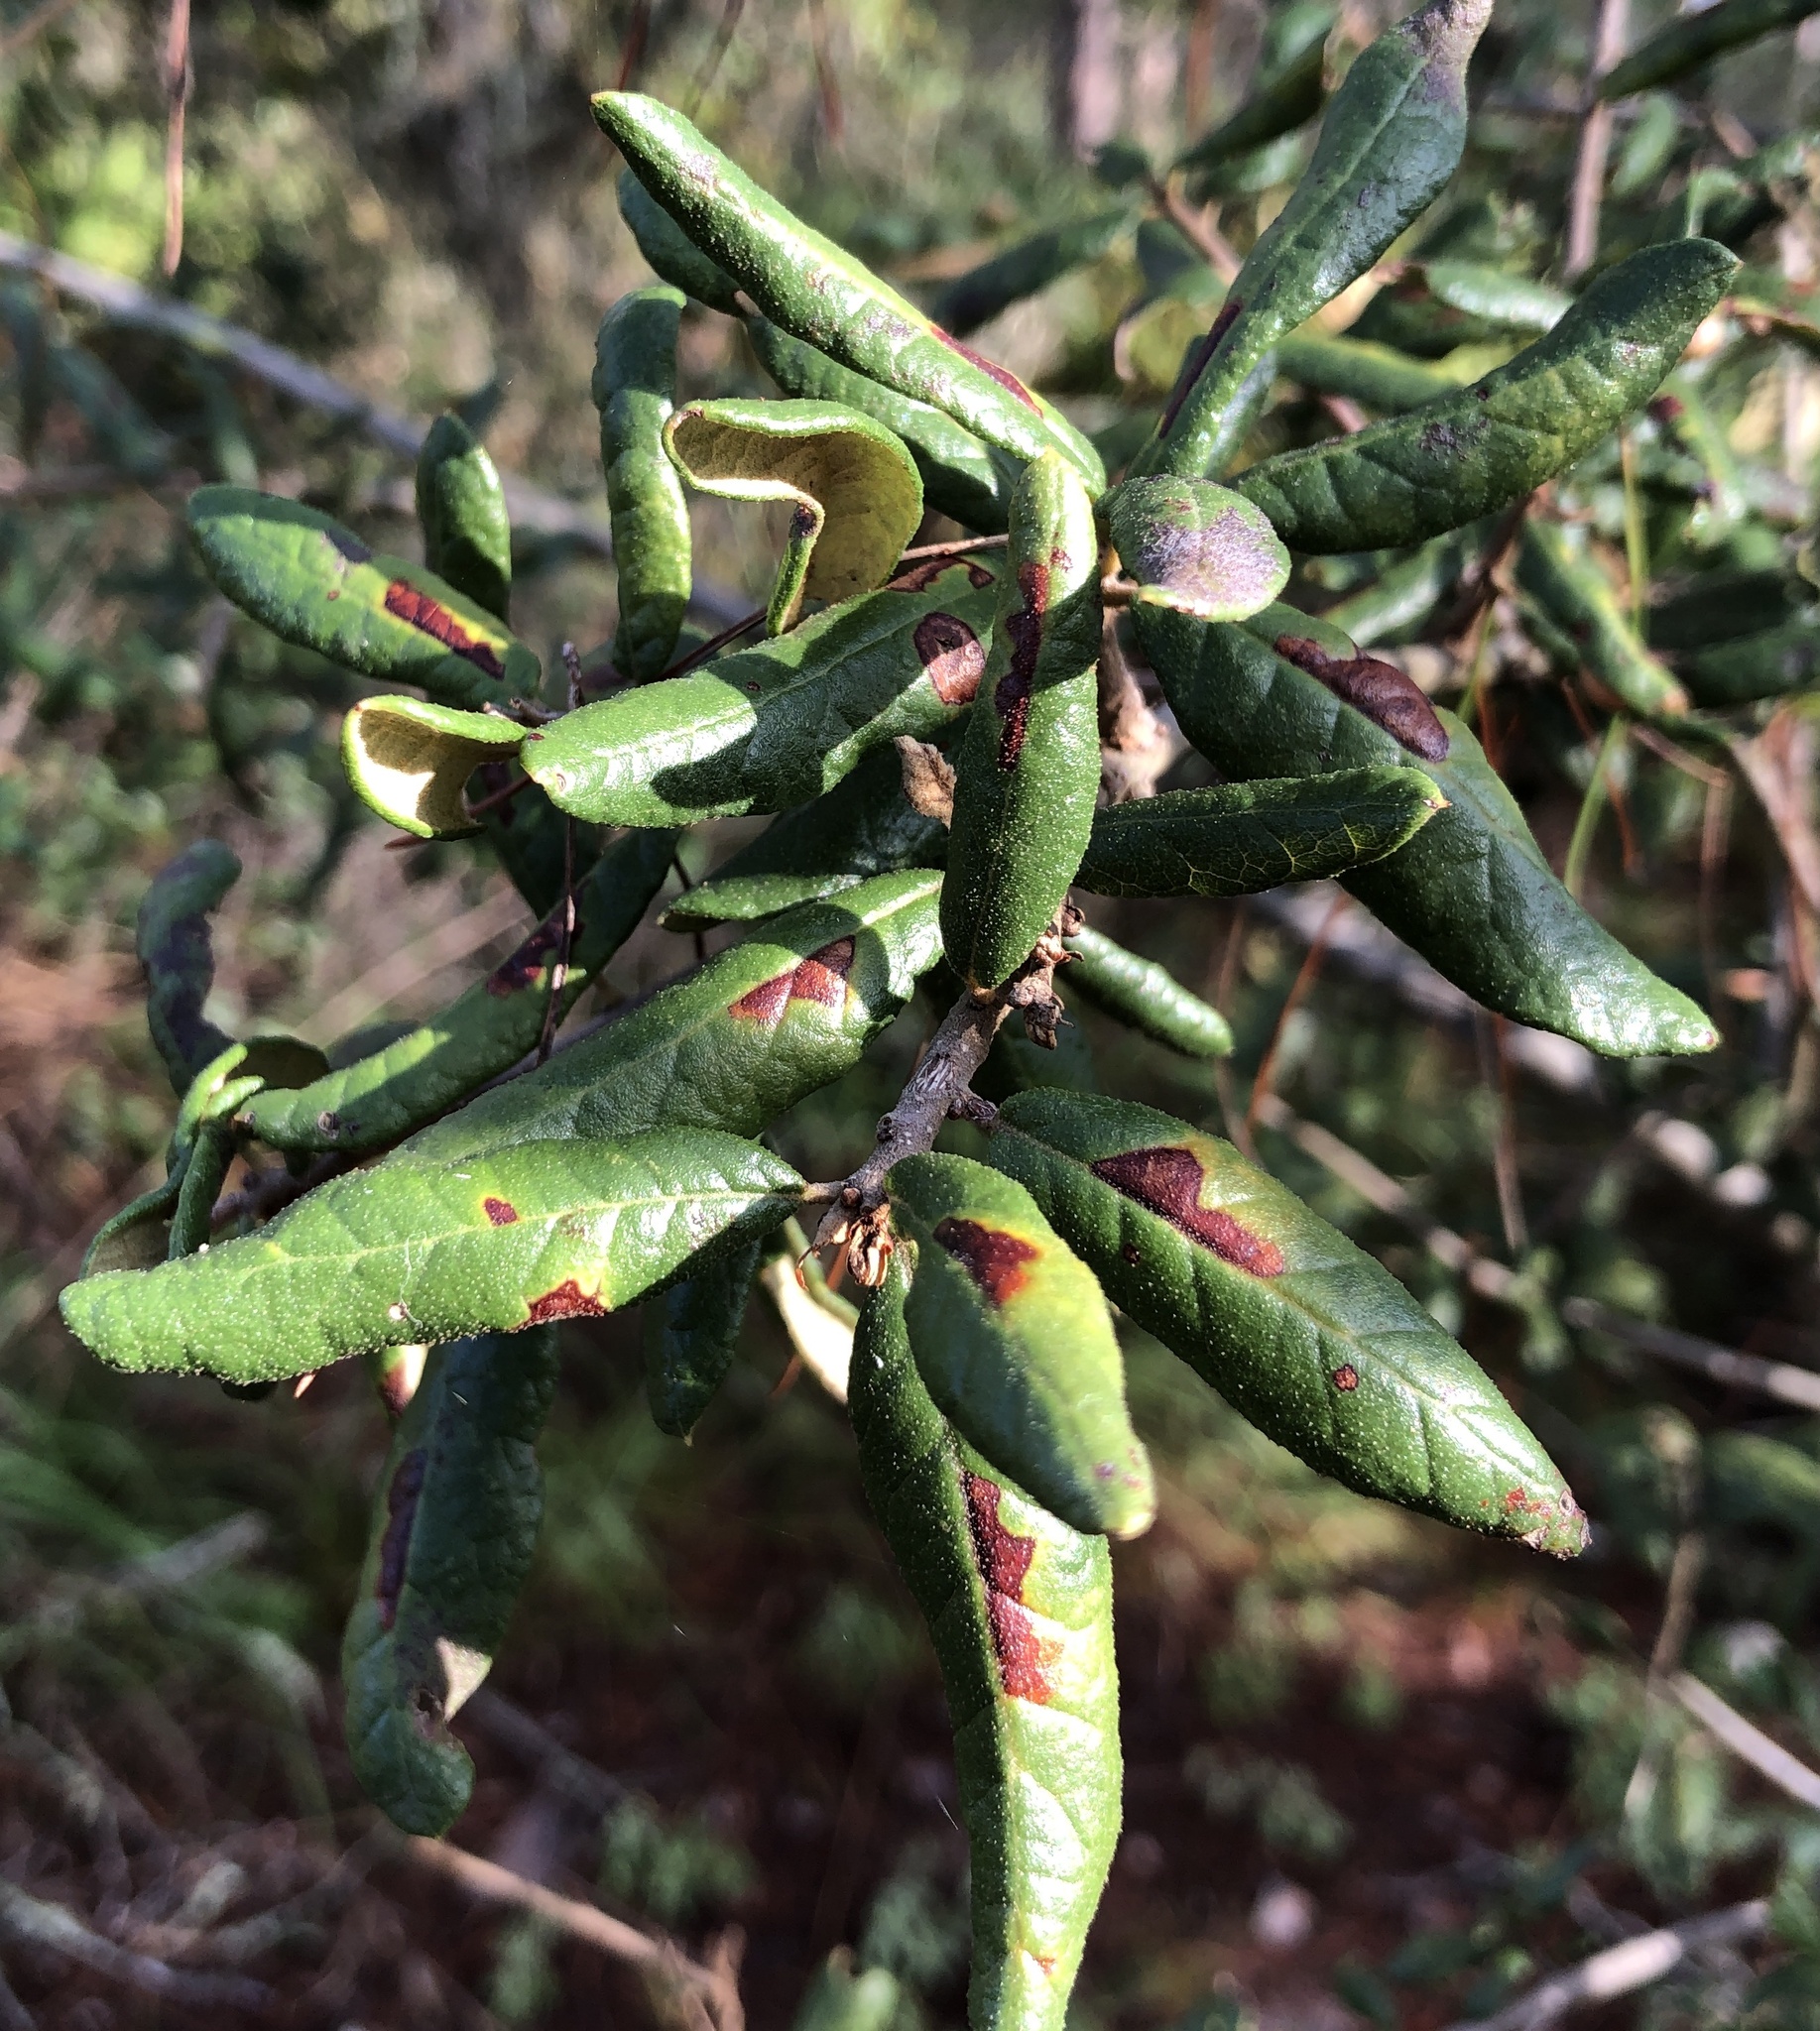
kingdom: Plantae
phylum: Tracheophyta
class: Magnoliopsida
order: Fagales
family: Fagaceae
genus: Quercus
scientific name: Quercus geminata
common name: Sand live oak
